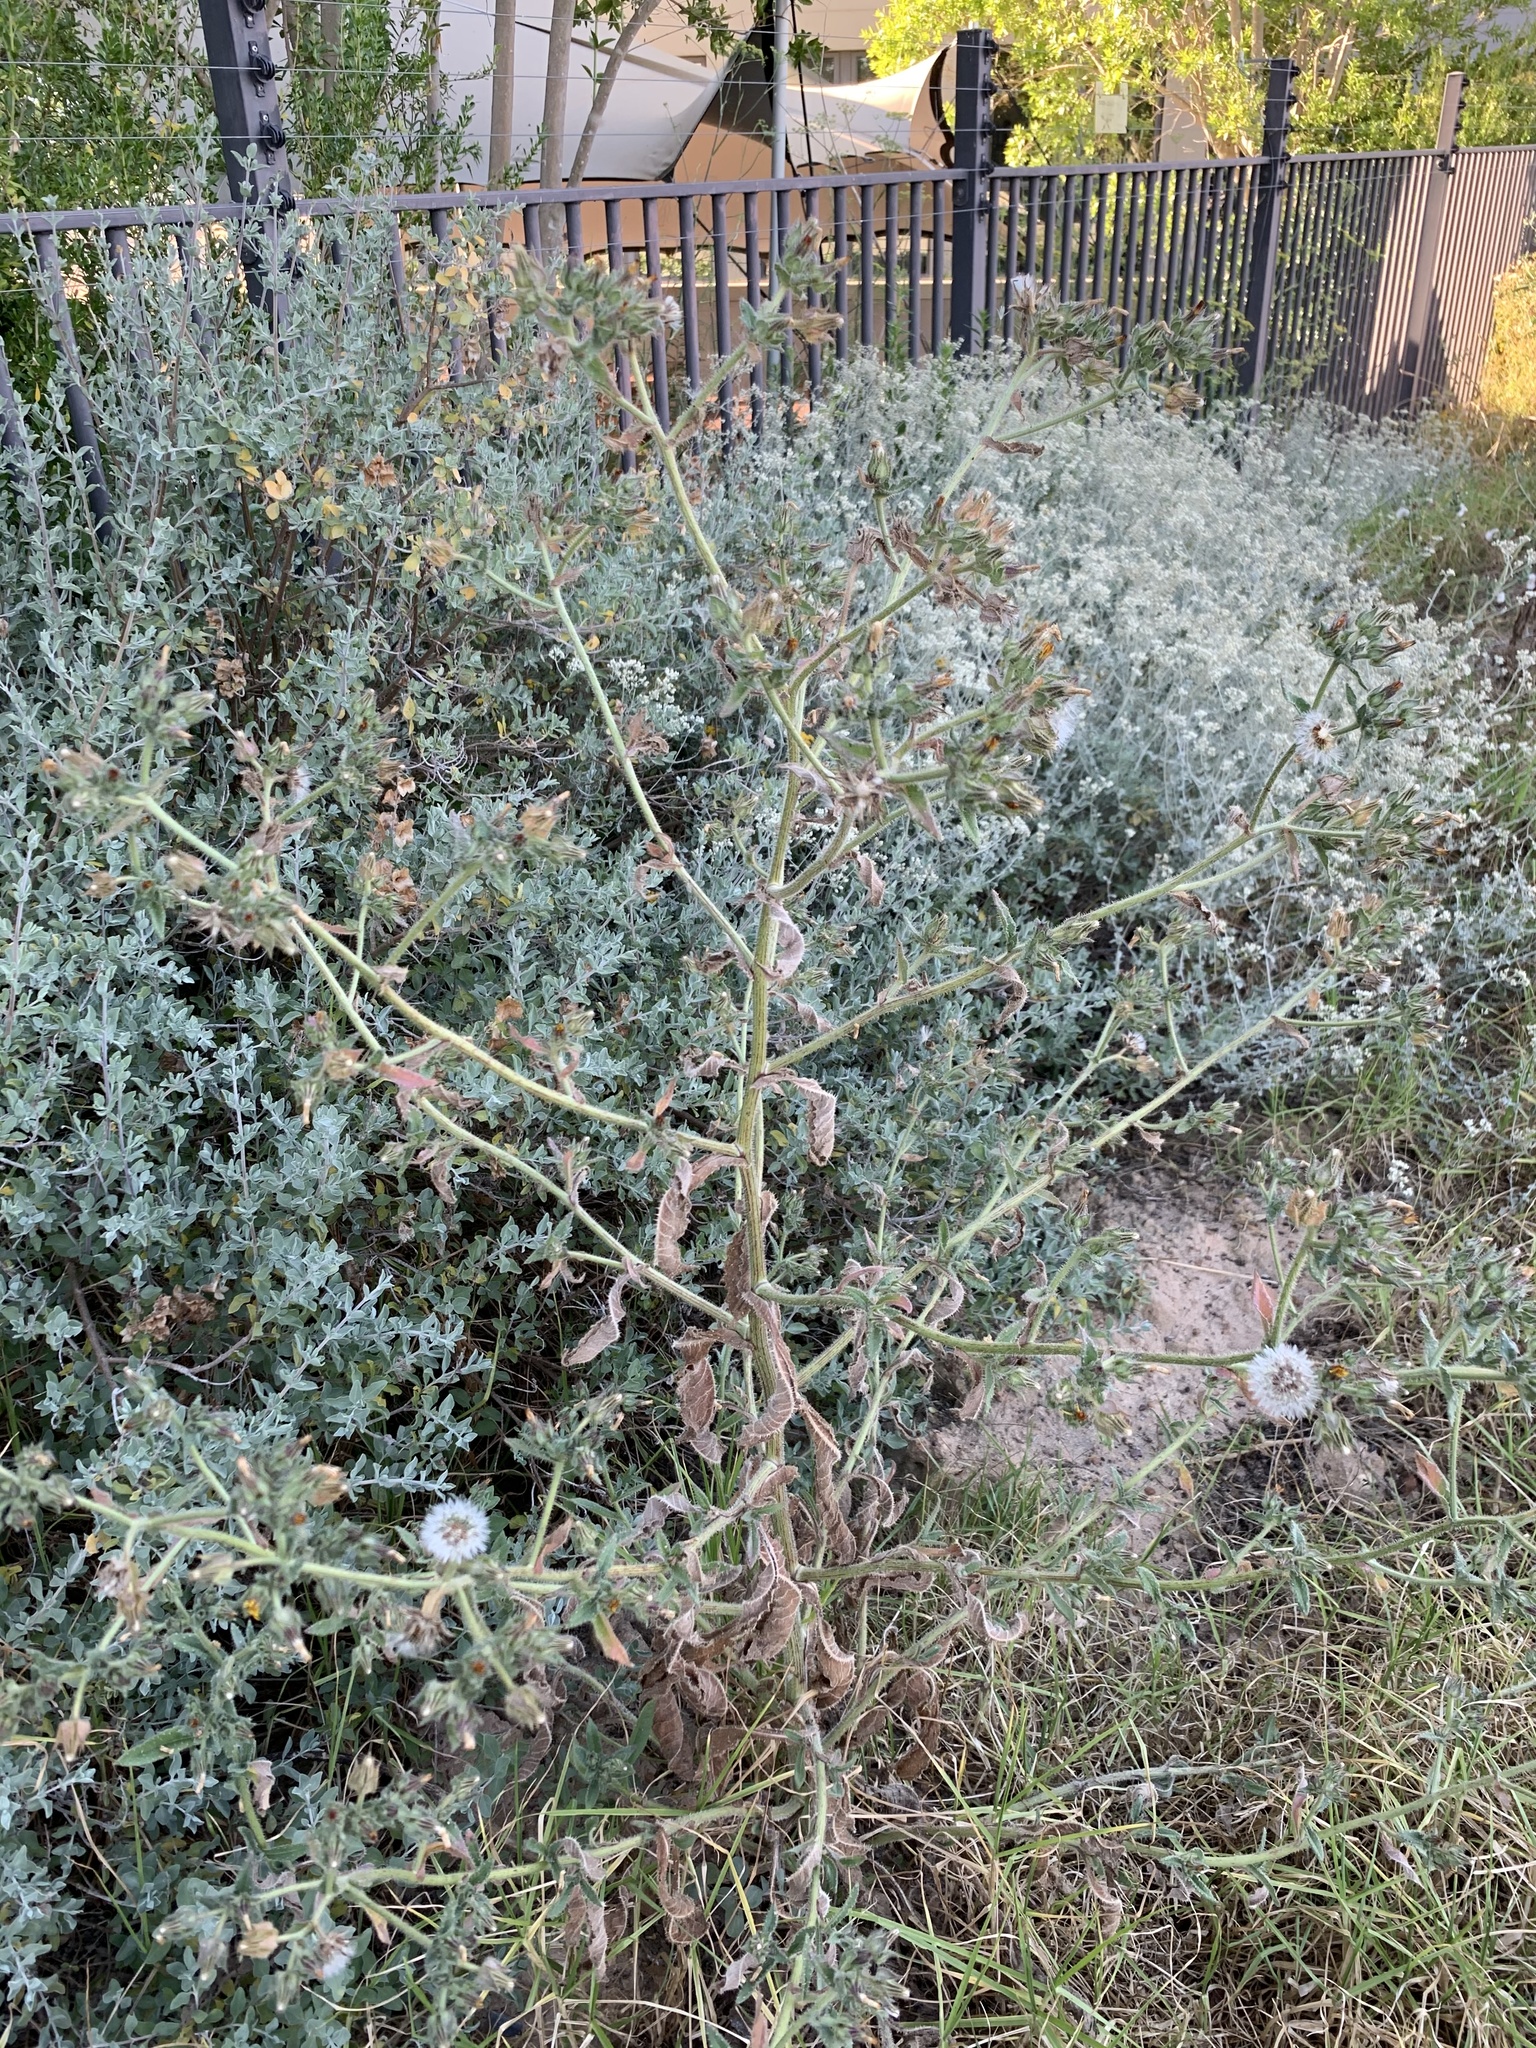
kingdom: Plantae
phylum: Tracheophyta
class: Magnoliopsida
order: Asterales
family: Asteraceae
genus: Helminthotheca
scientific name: Helminthotheca echioides
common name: Ox-tongue
